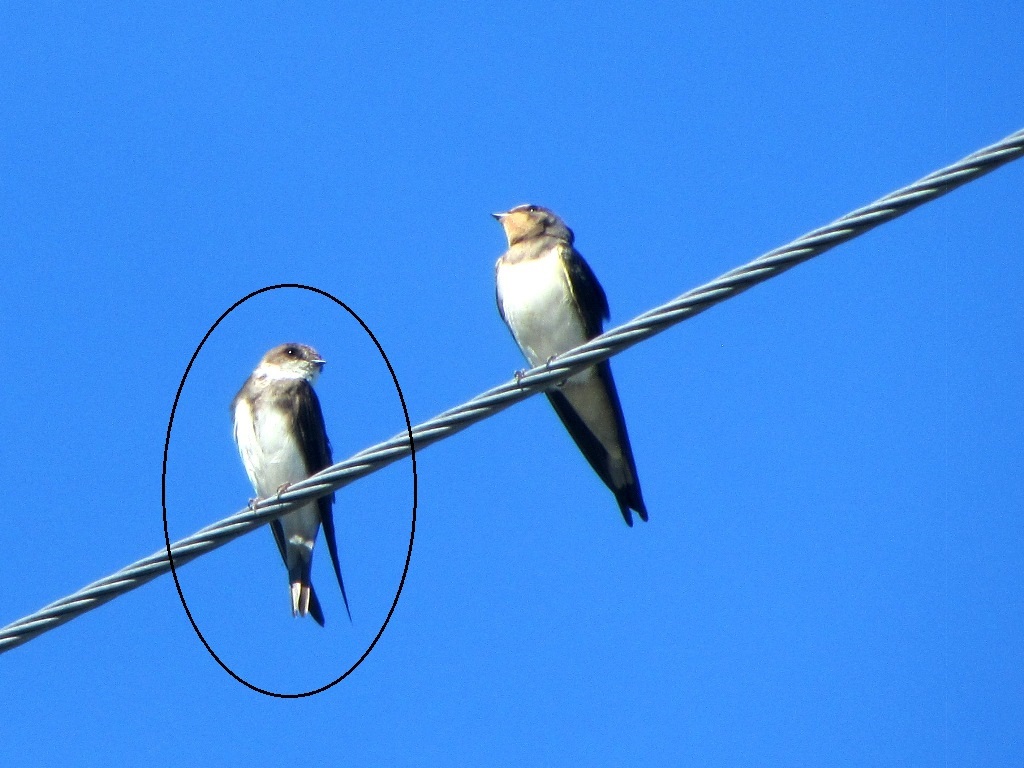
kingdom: Animalia
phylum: Chordata
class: Aves
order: Passeriformes
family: Hirundinidae
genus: Riparia
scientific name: Riparia riparia
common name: Sand martin
